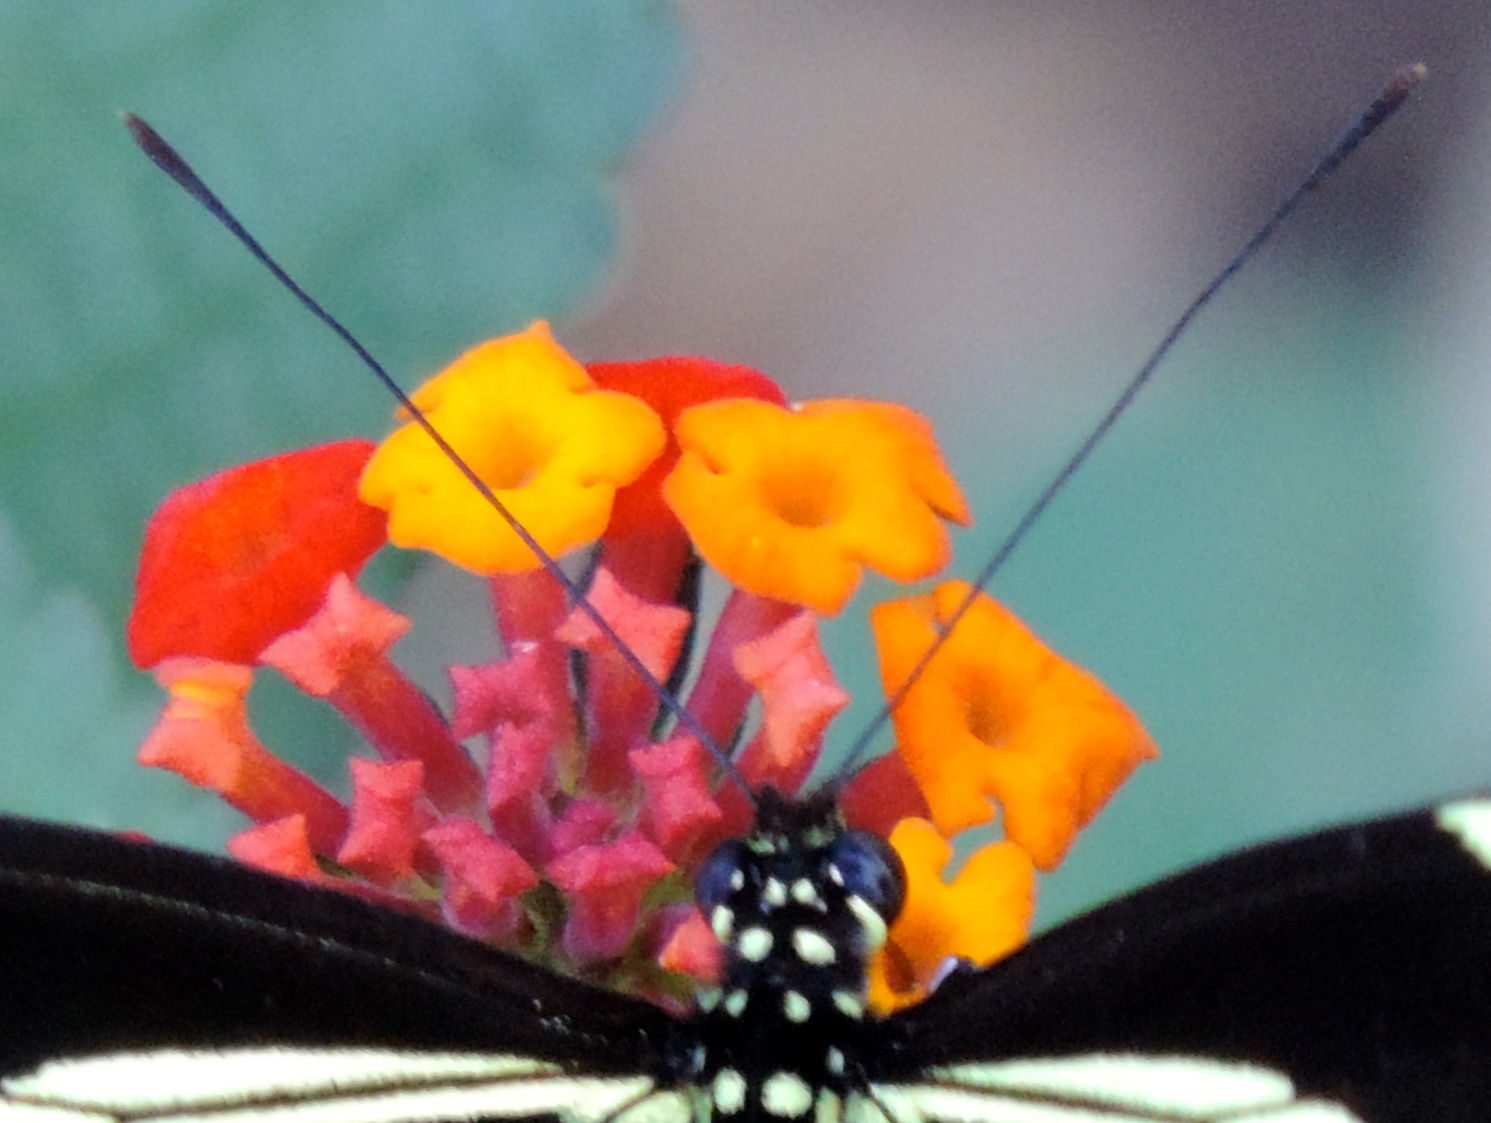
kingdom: Plantae
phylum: Tracheophyta
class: Magnoliopsida
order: Lamiales
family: Verbenaceae
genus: Lantana
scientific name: Lantana camara
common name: Lantana
